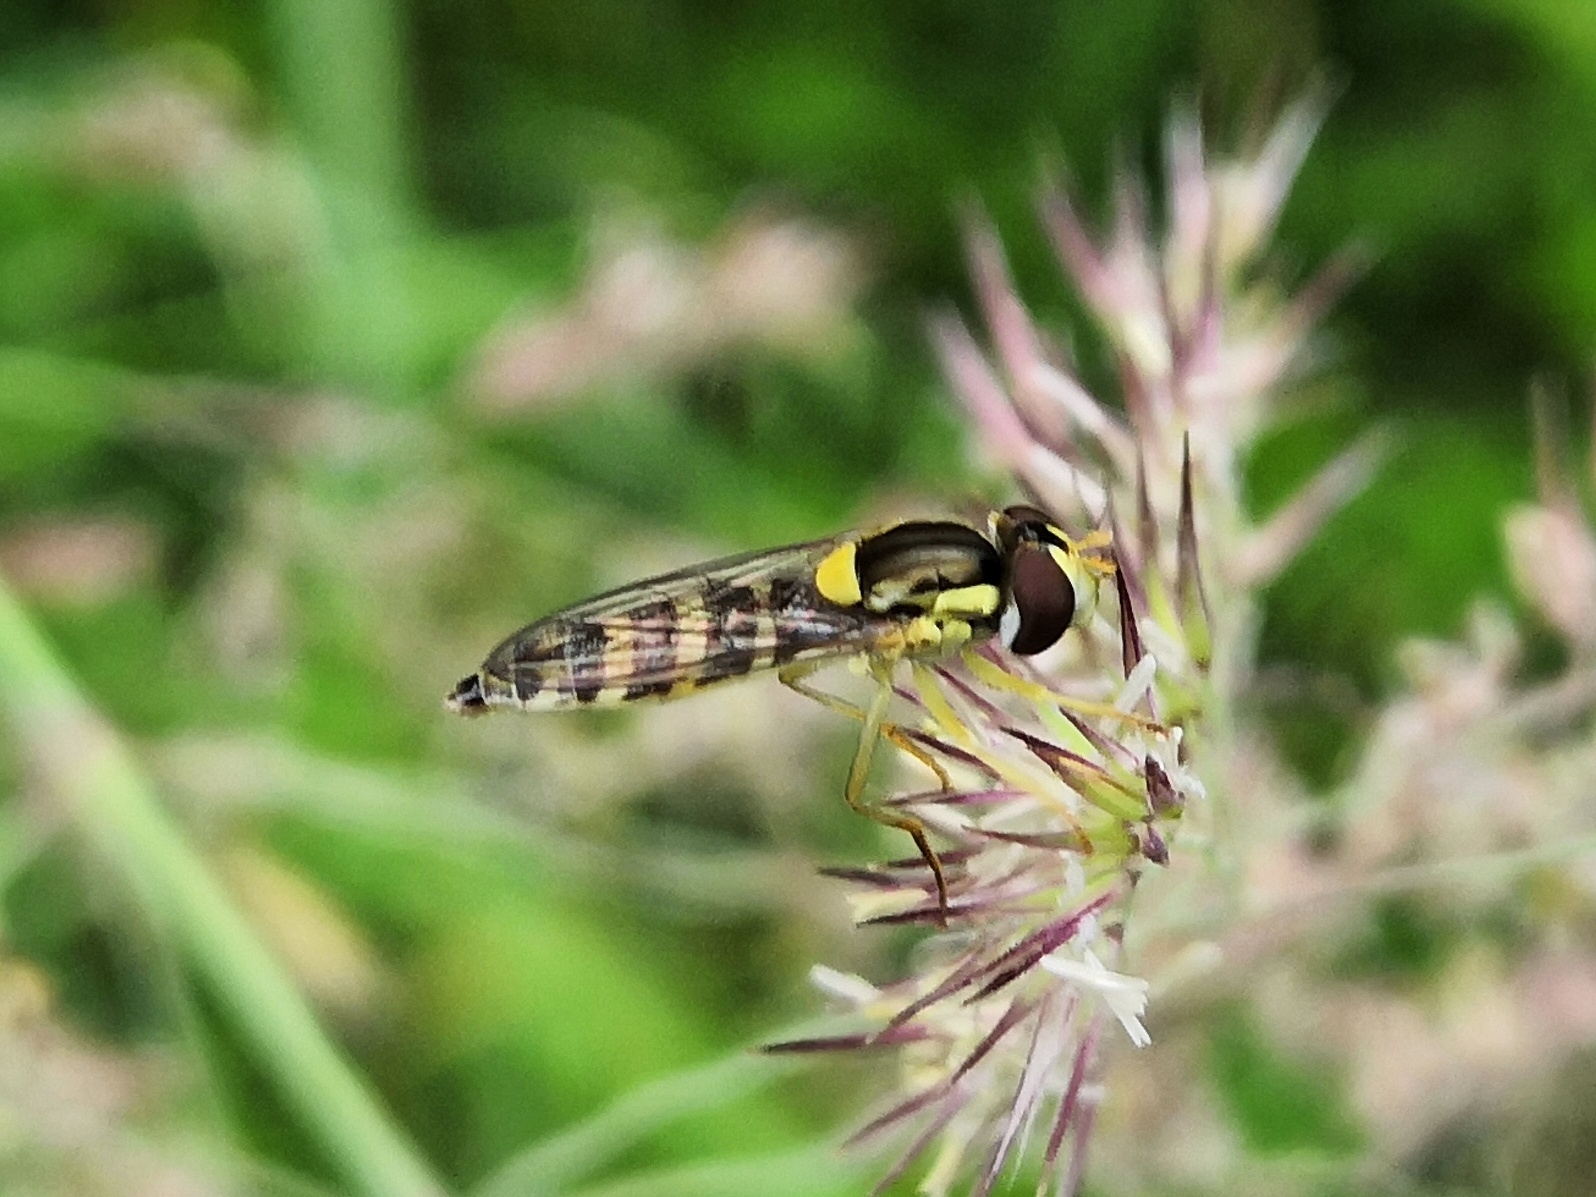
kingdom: Animalia
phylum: Arthropoda
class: Insecta
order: Diptera
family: Syrphidae
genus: Sphaerophoria
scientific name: Sphaerophoria
